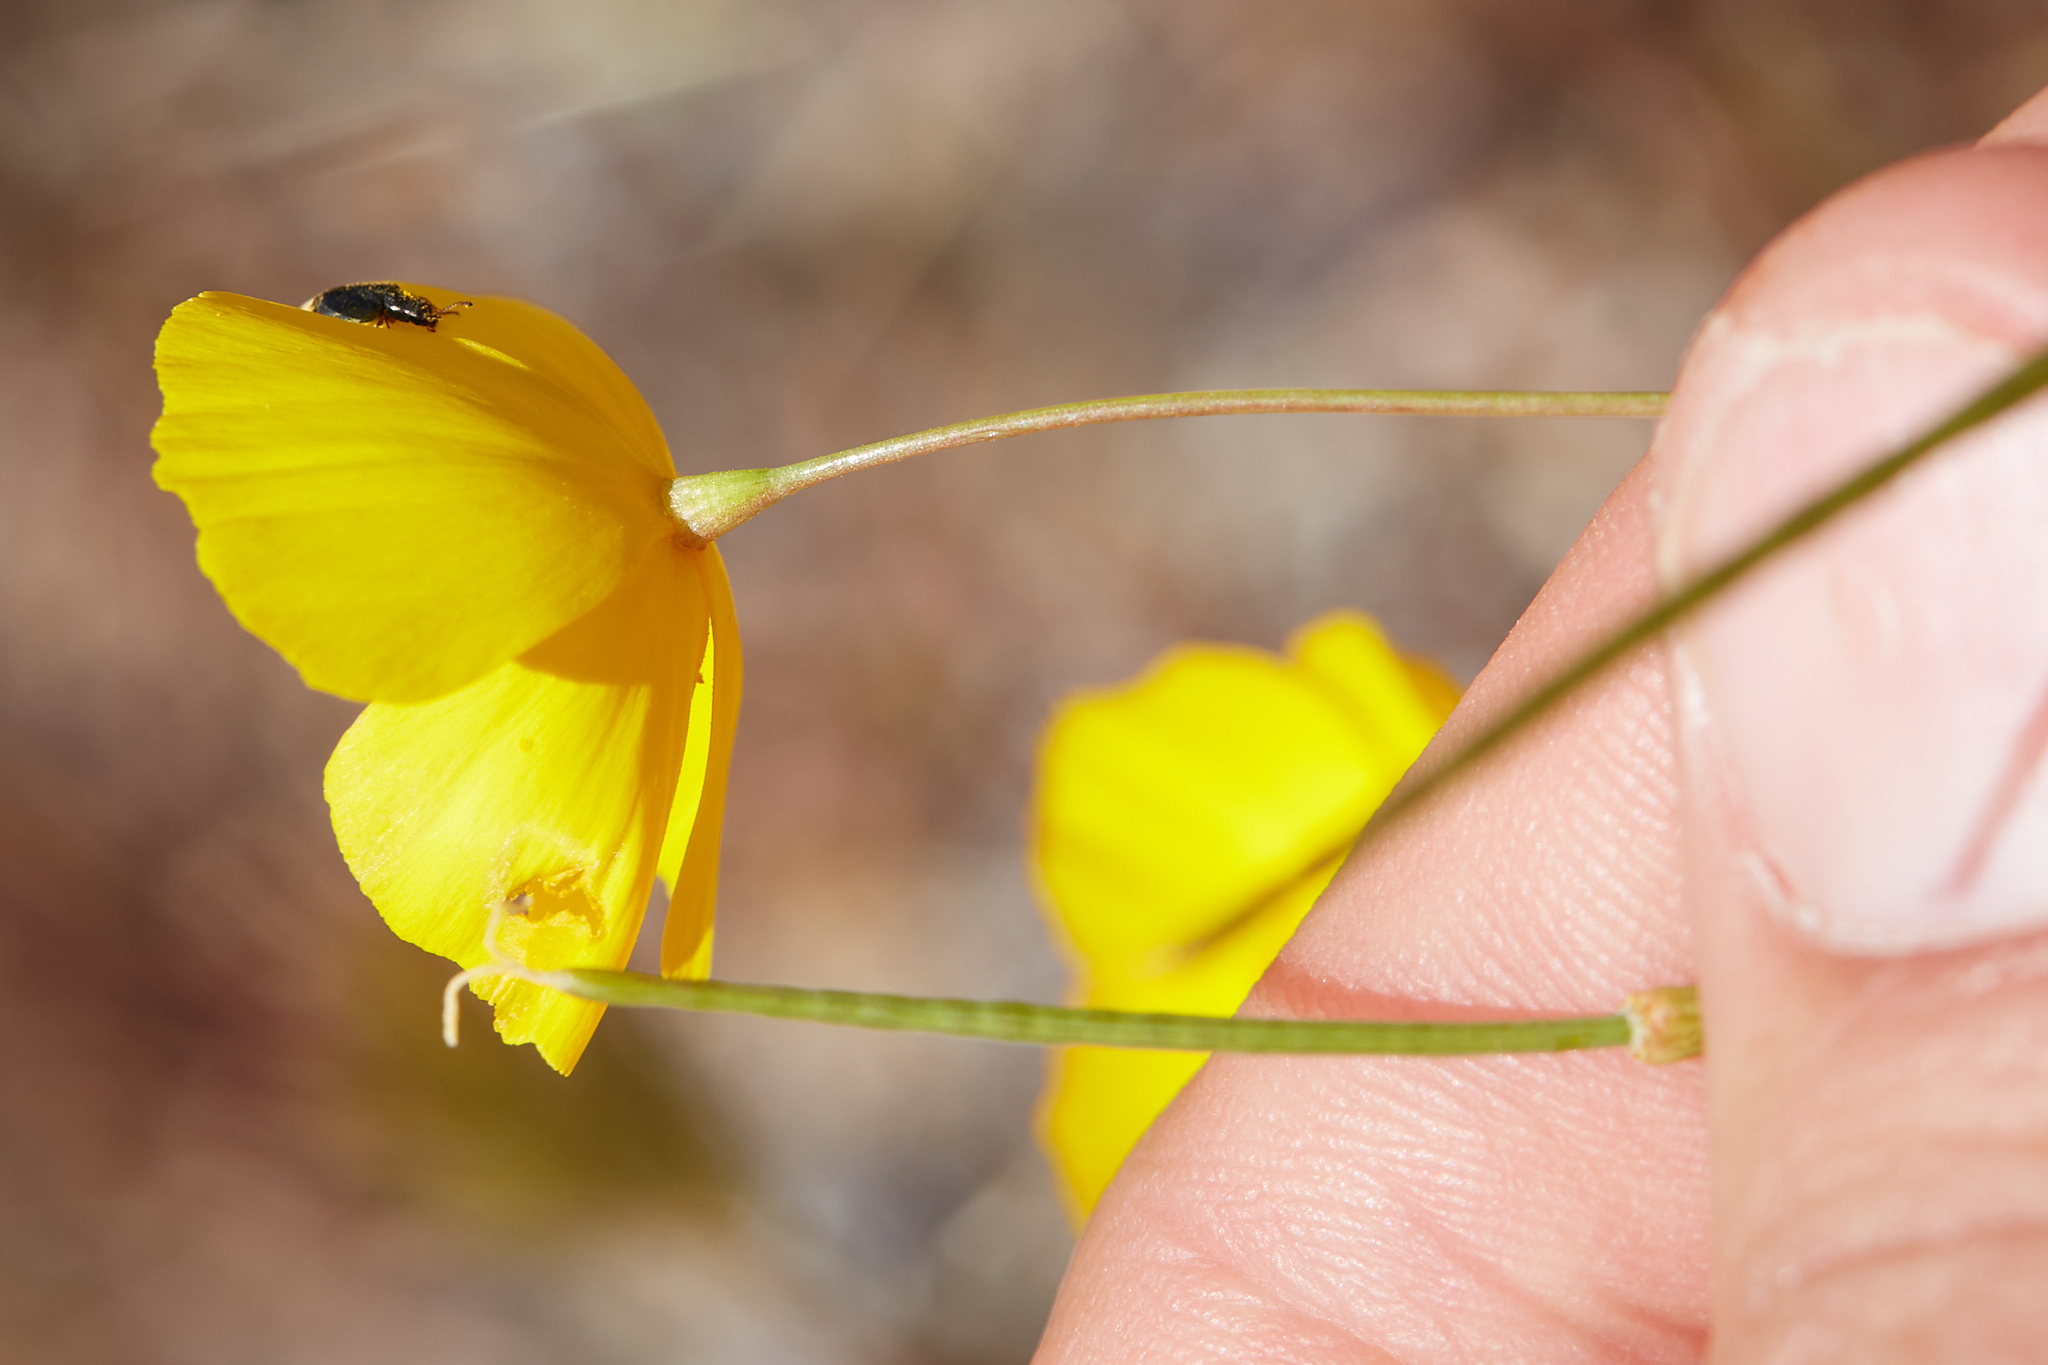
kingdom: Plantae
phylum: Tracheophyta
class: Magnoliopsida
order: Ranunculales
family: Papaveraceae
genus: Eschscholzia
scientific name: Eschscholzia androuxii
